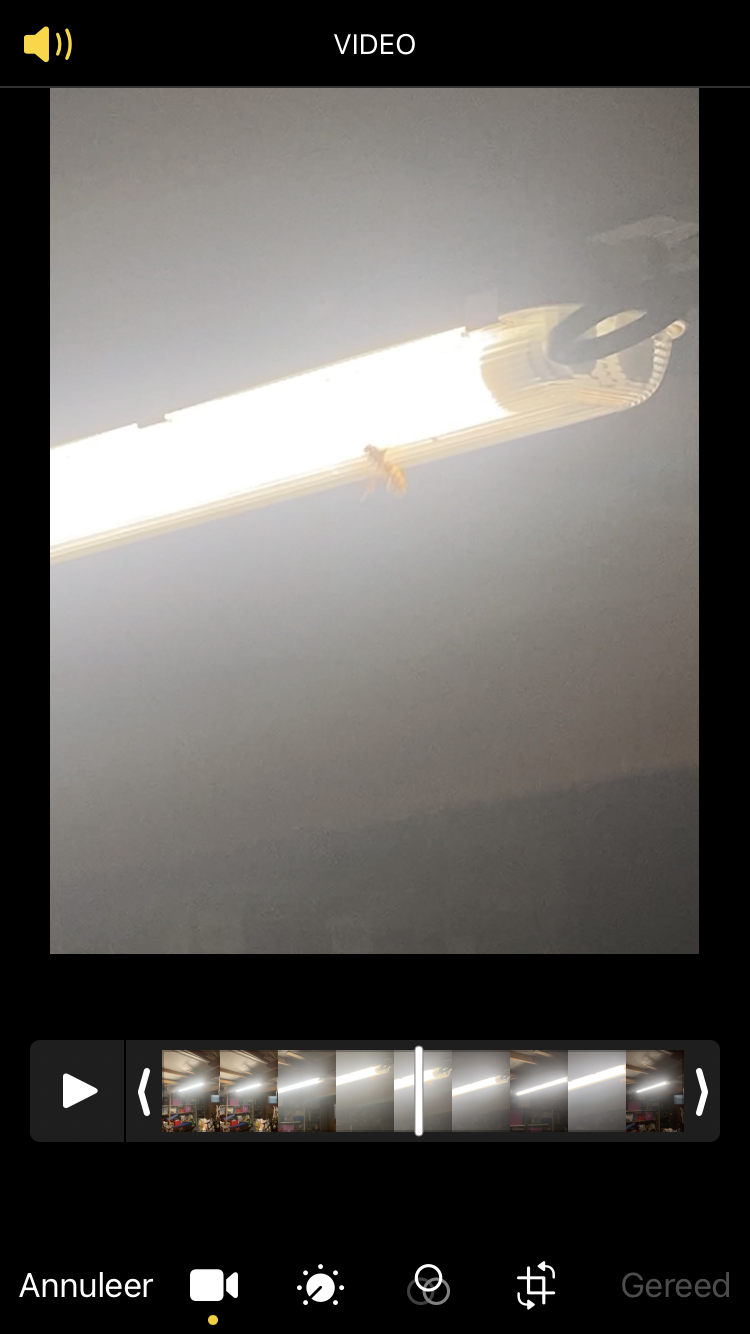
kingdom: Animalia
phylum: Arthropoda
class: Insecta
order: Hymenoptera
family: Vespidae
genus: Vespa
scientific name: Vespa crabro
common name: Hornet
